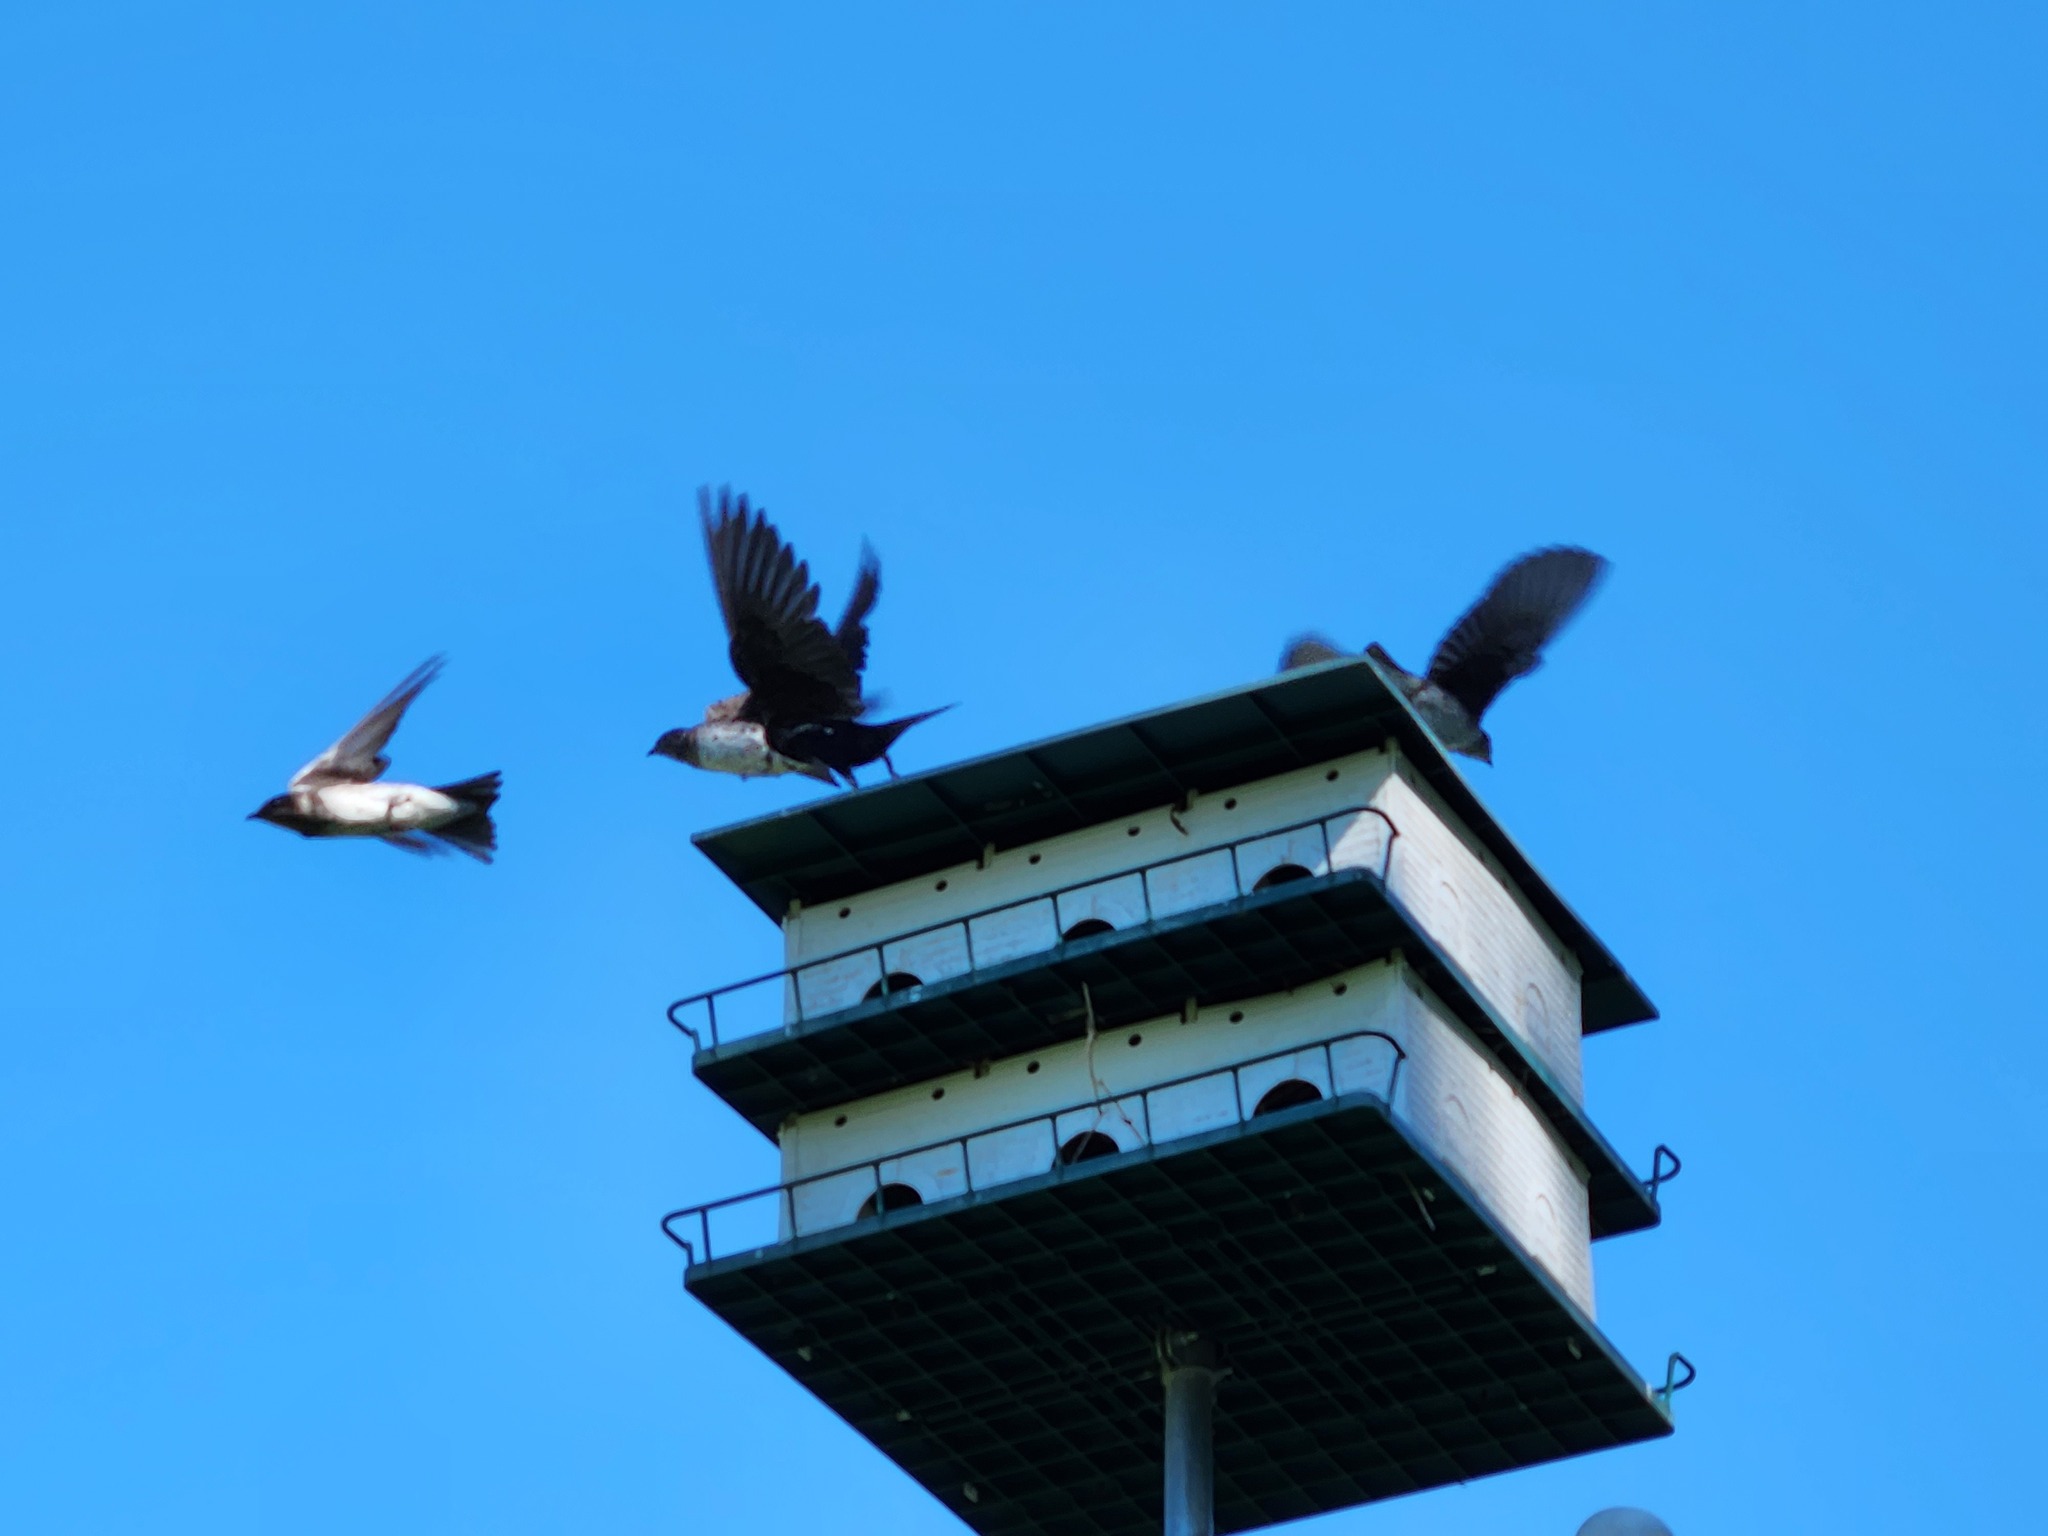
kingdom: Animalia
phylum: Chordata
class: Aves
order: Passeriformes
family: Hirundinidae
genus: Progne
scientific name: Progne subis
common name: Purple martin
